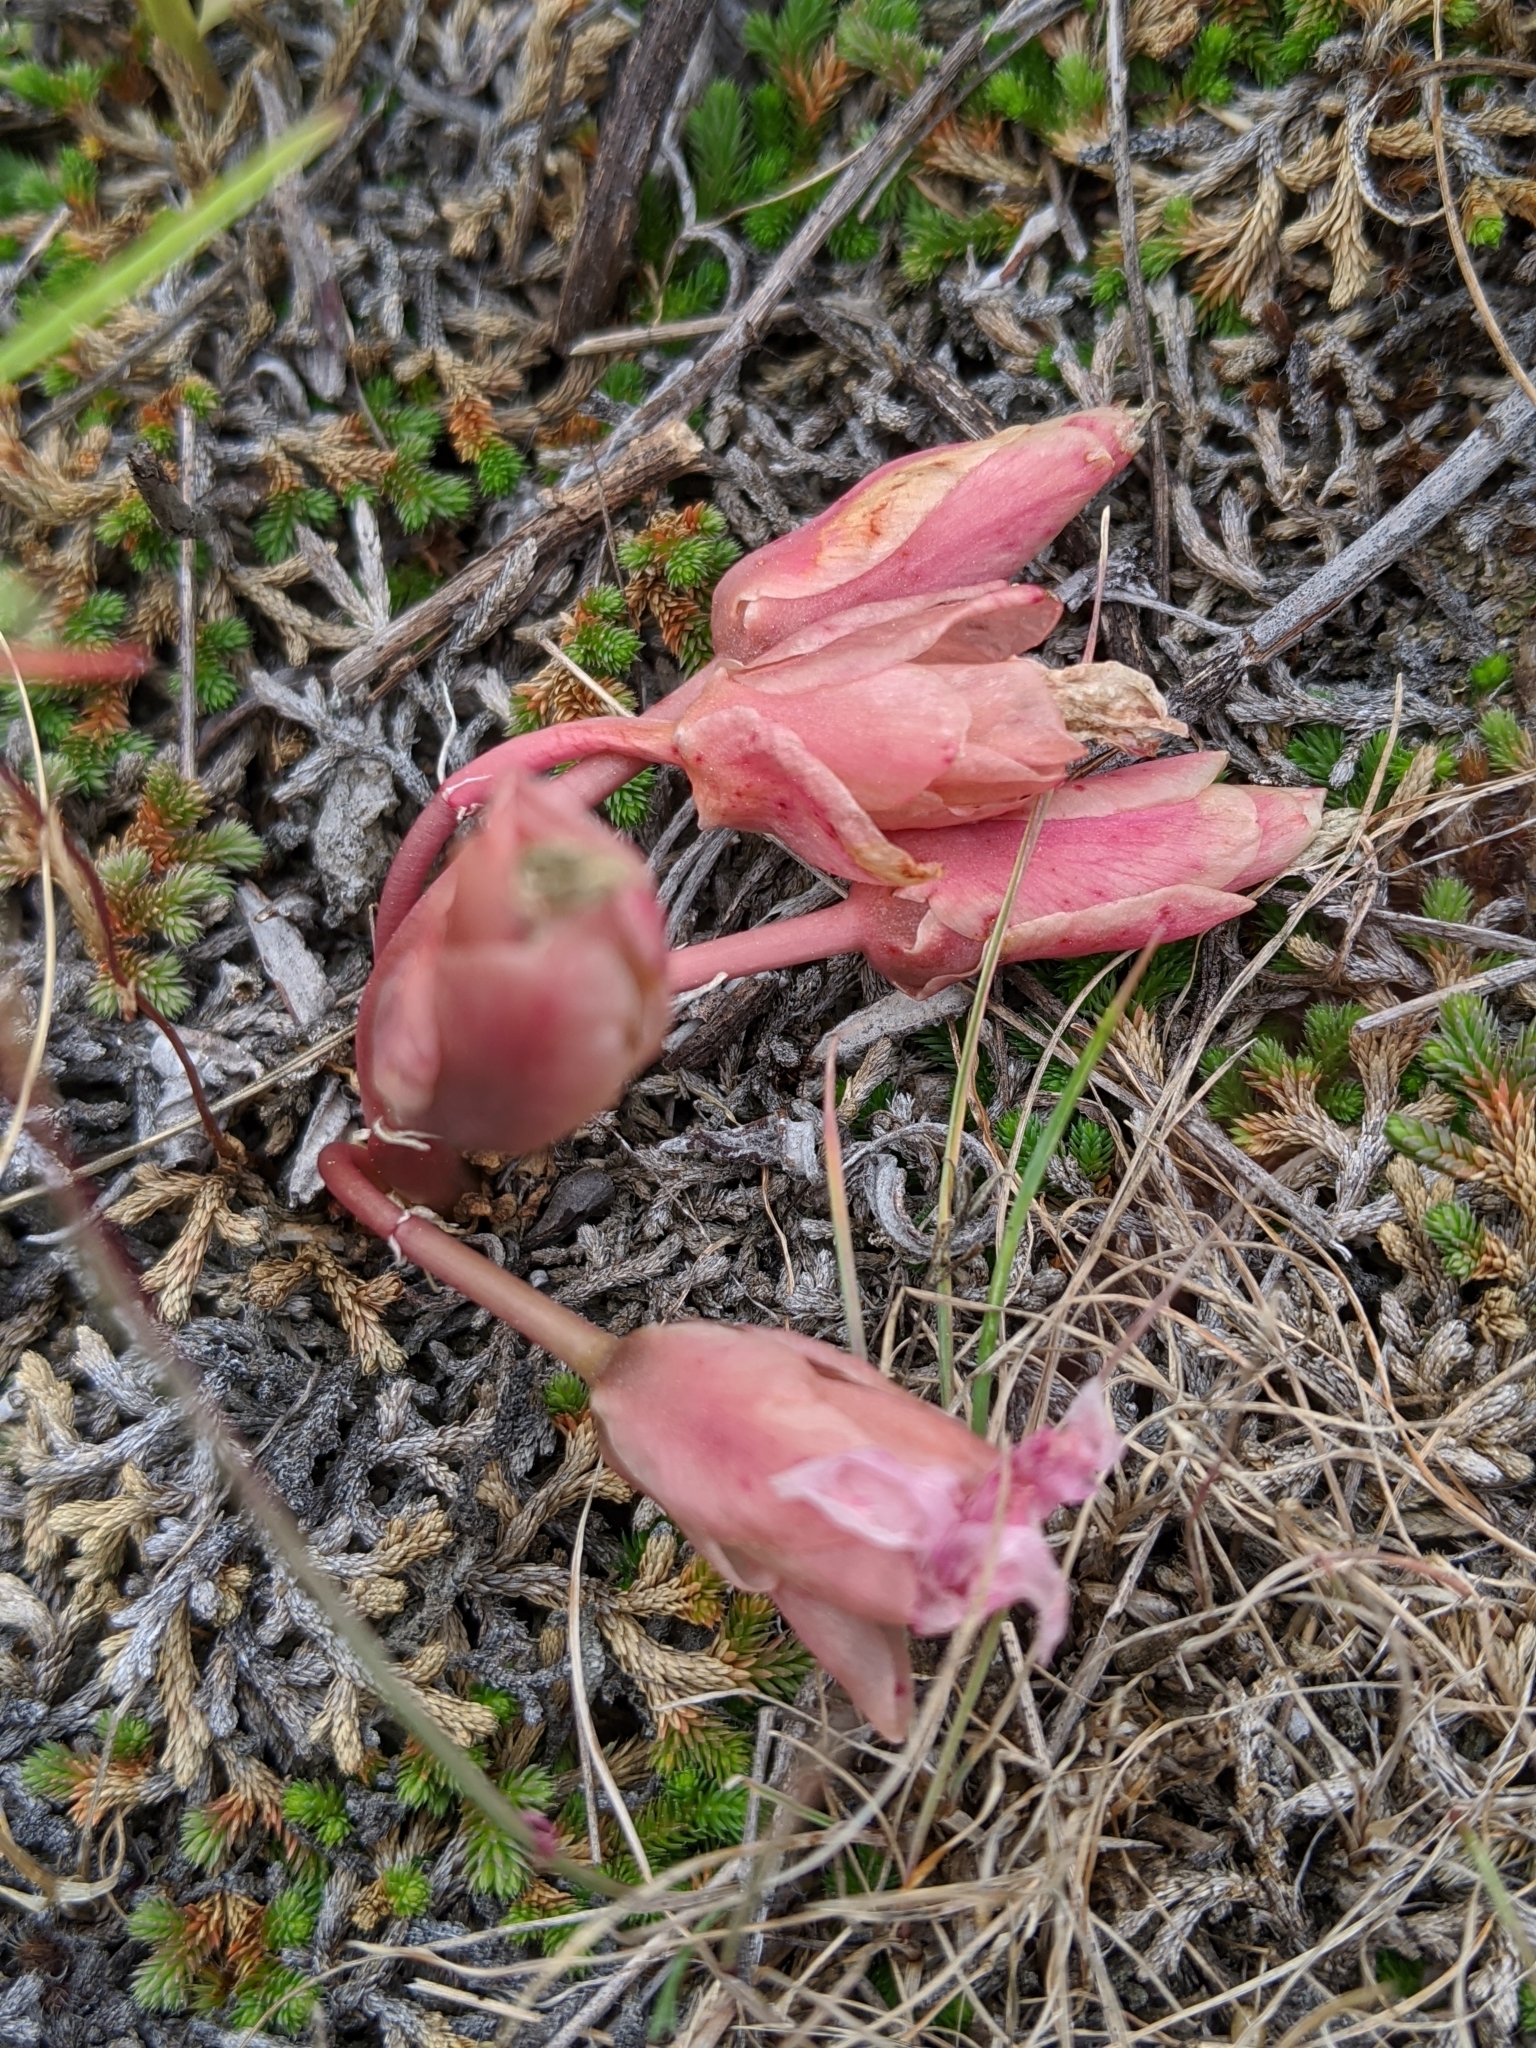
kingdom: Plantae
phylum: Tracheophyta
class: Magnoliopsida
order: Caryophyllales
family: Montiaceae
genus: Lewisia
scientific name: Lewisia rediviva
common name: Bitter-root
